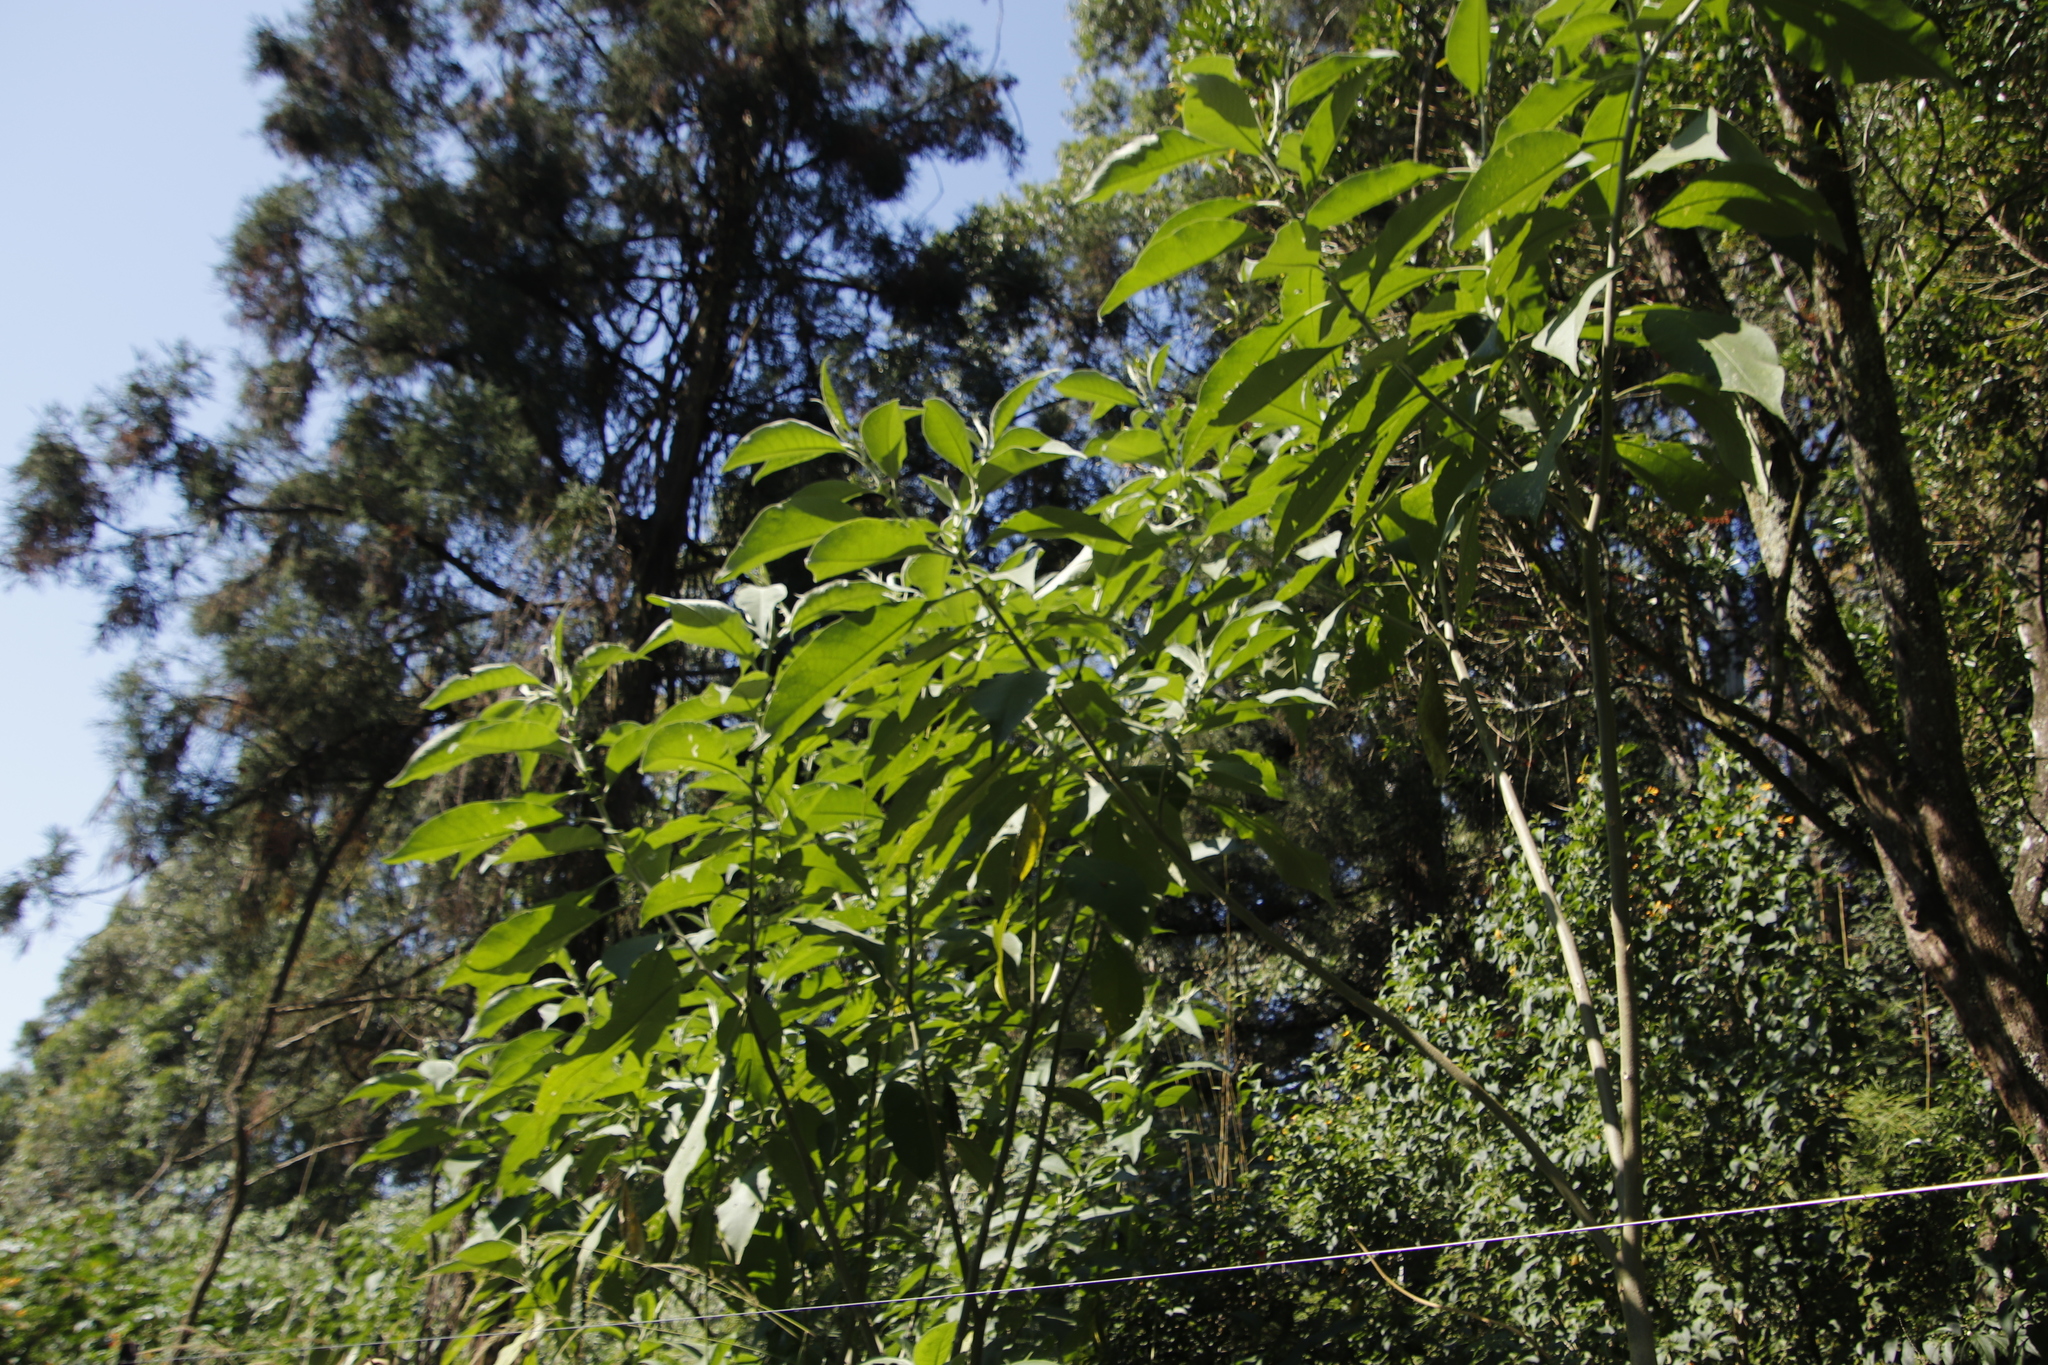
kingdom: Plantae
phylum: Tracheophyta
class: Magnoliopsida
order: Solanales
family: Solanaceae
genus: Solanum
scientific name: Solanum mauritianum
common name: Earleaf nightshade
